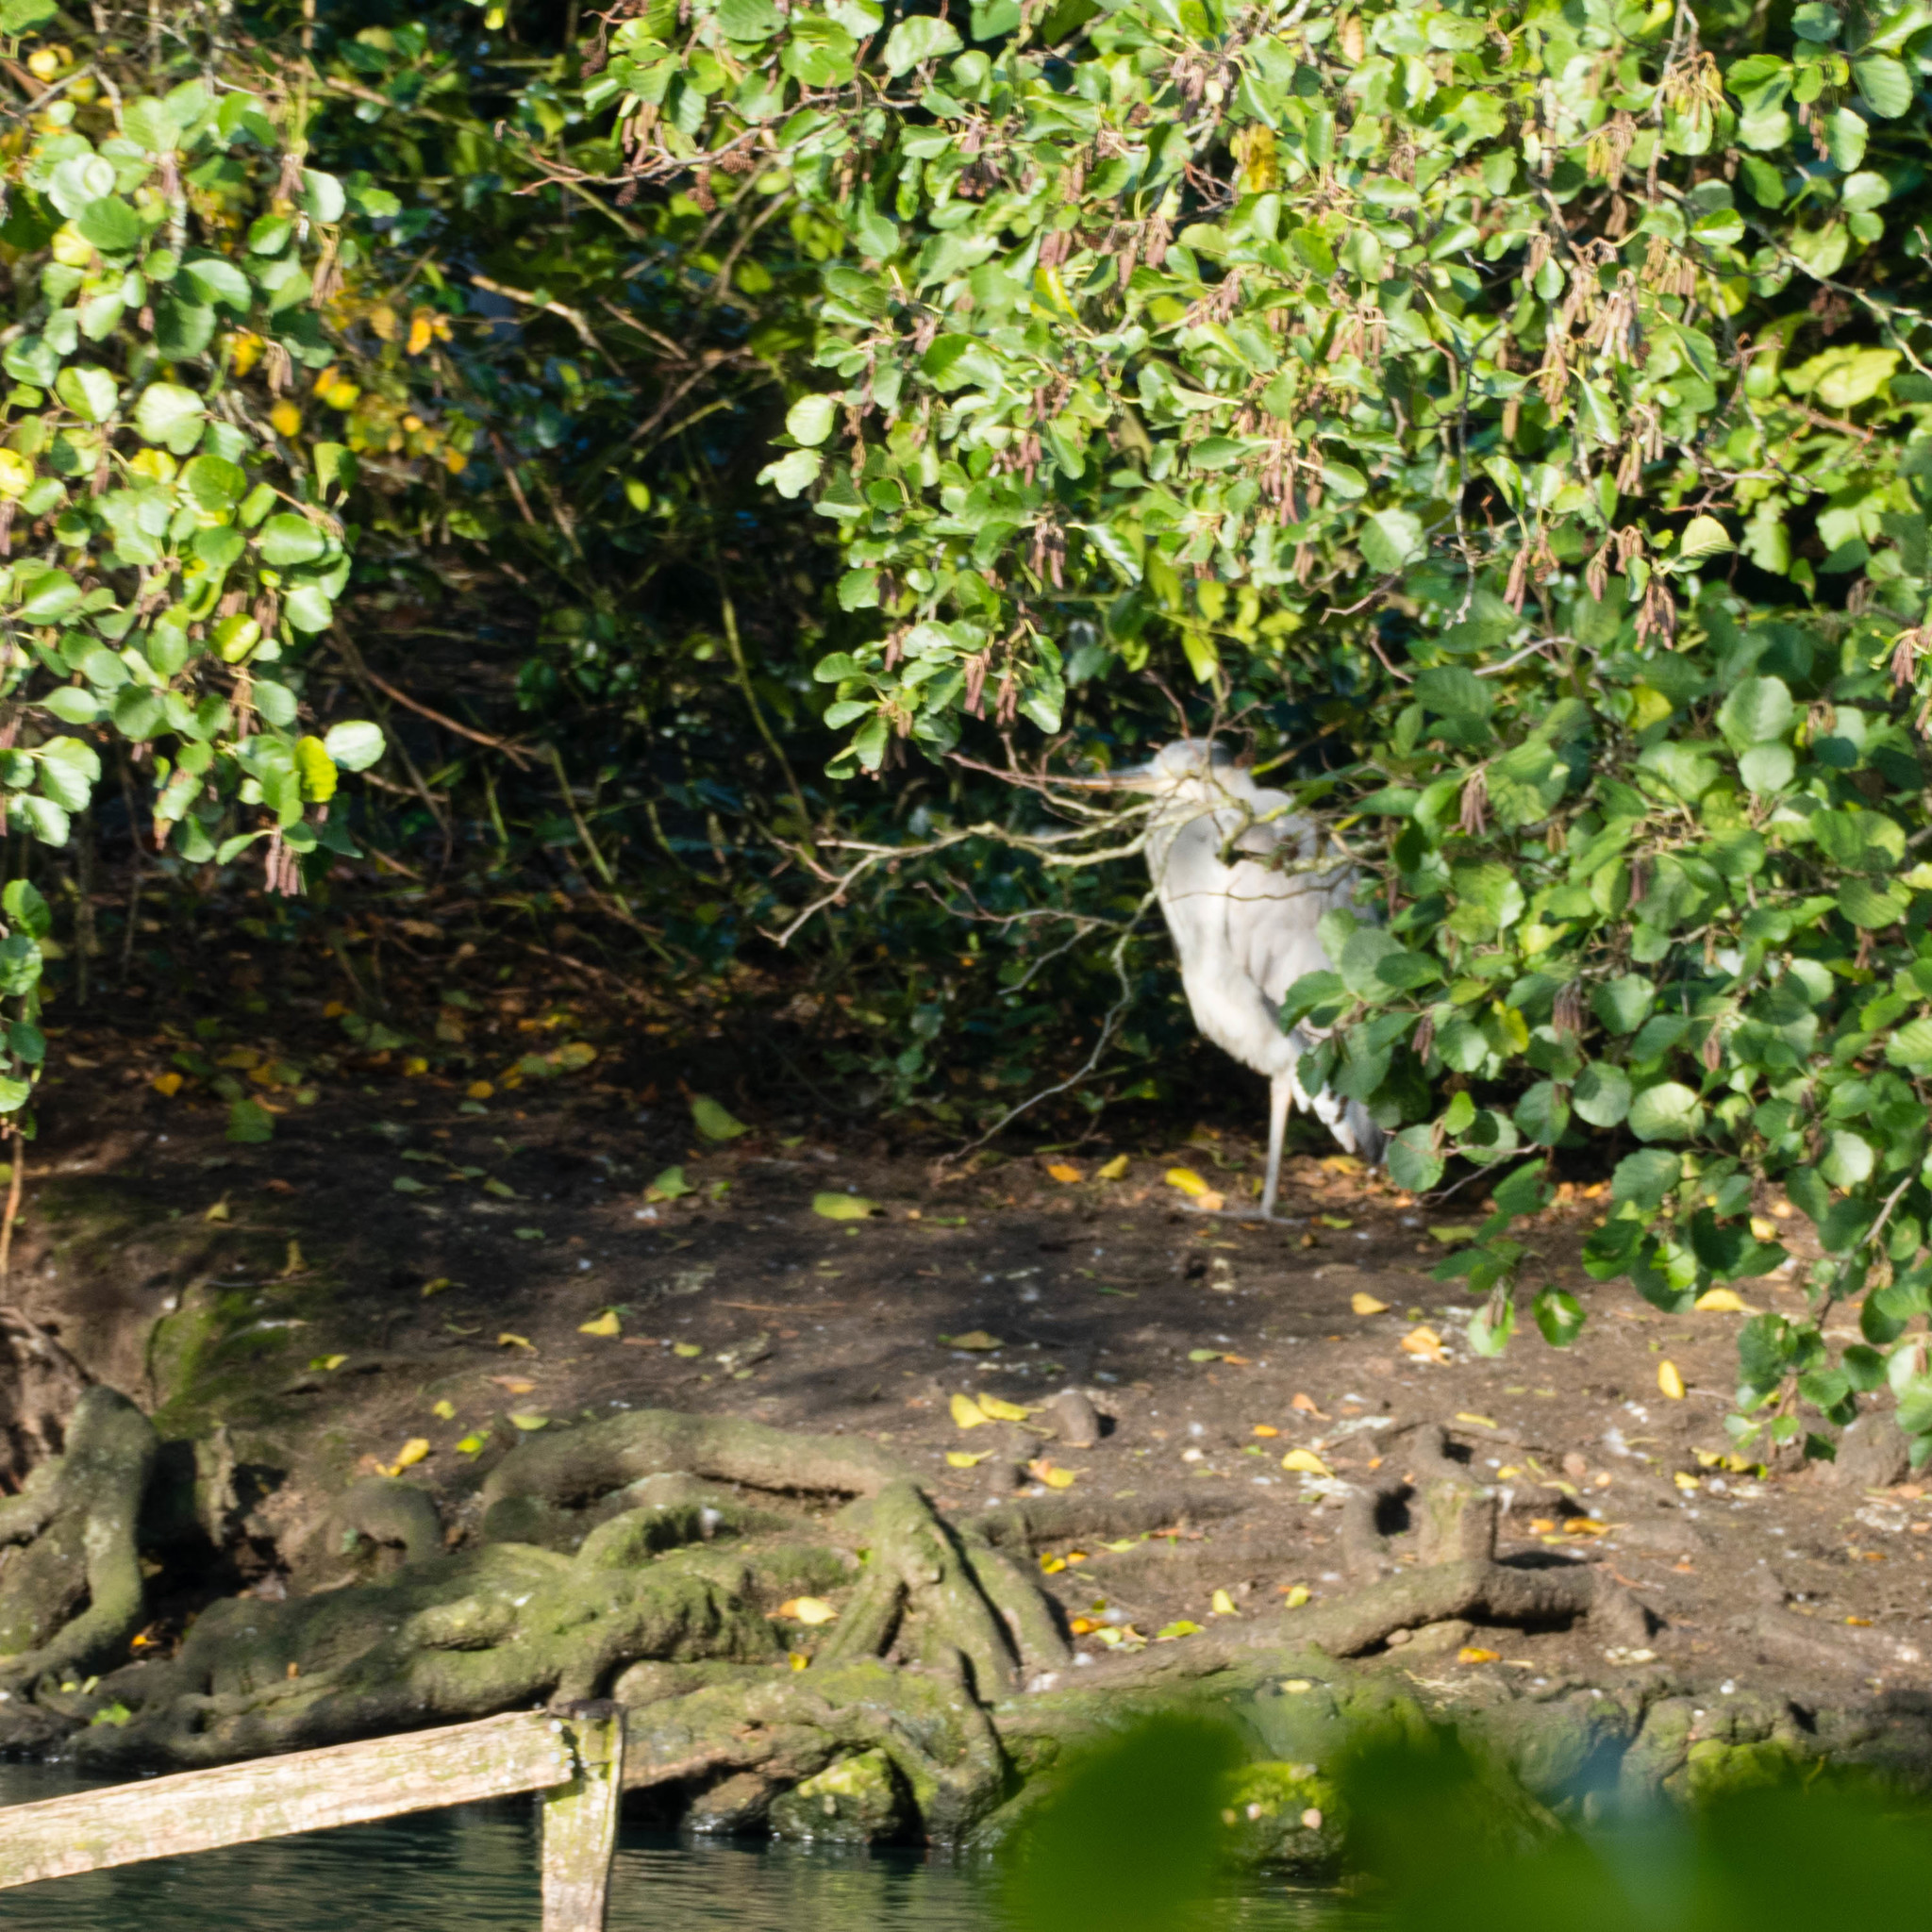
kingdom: Animalia
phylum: Chordata
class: Aves
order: Pelecaniformes
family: Ardeidae
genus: Ardea
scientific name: Ardea cinerea
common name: Grey heron
